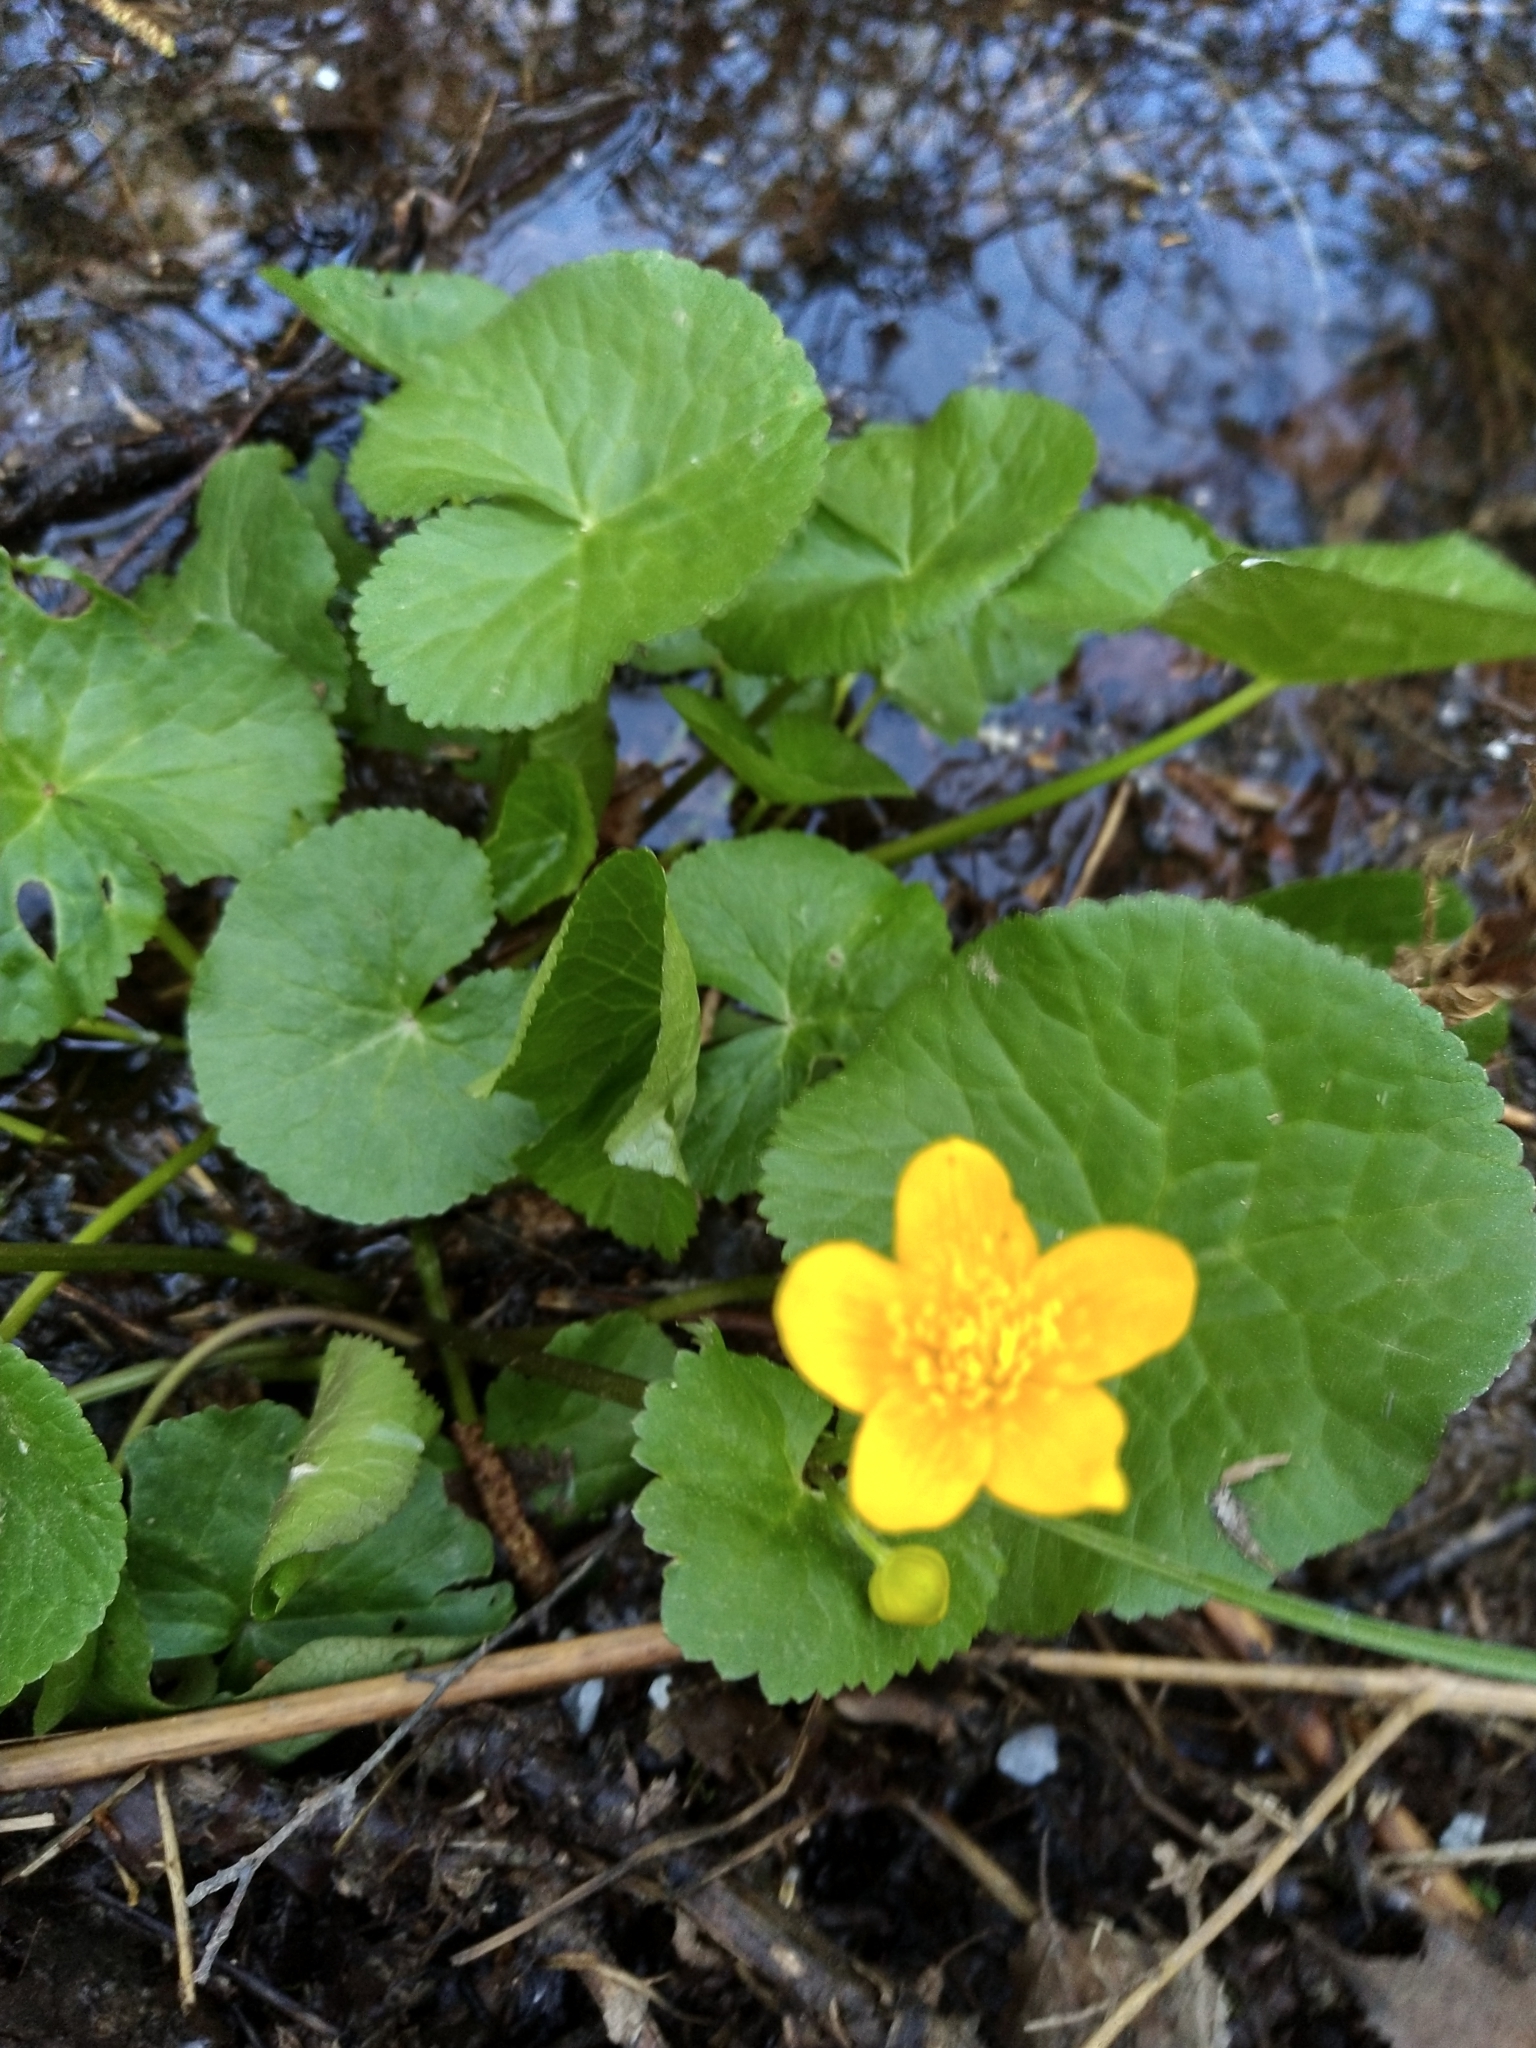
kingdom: Plantae
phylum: Tracheophyta
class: Magnoliopsida
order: Ranunculales
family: Ranunculaceae
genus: Caltha
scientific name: Caltha palustris
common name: Marsh marigold
